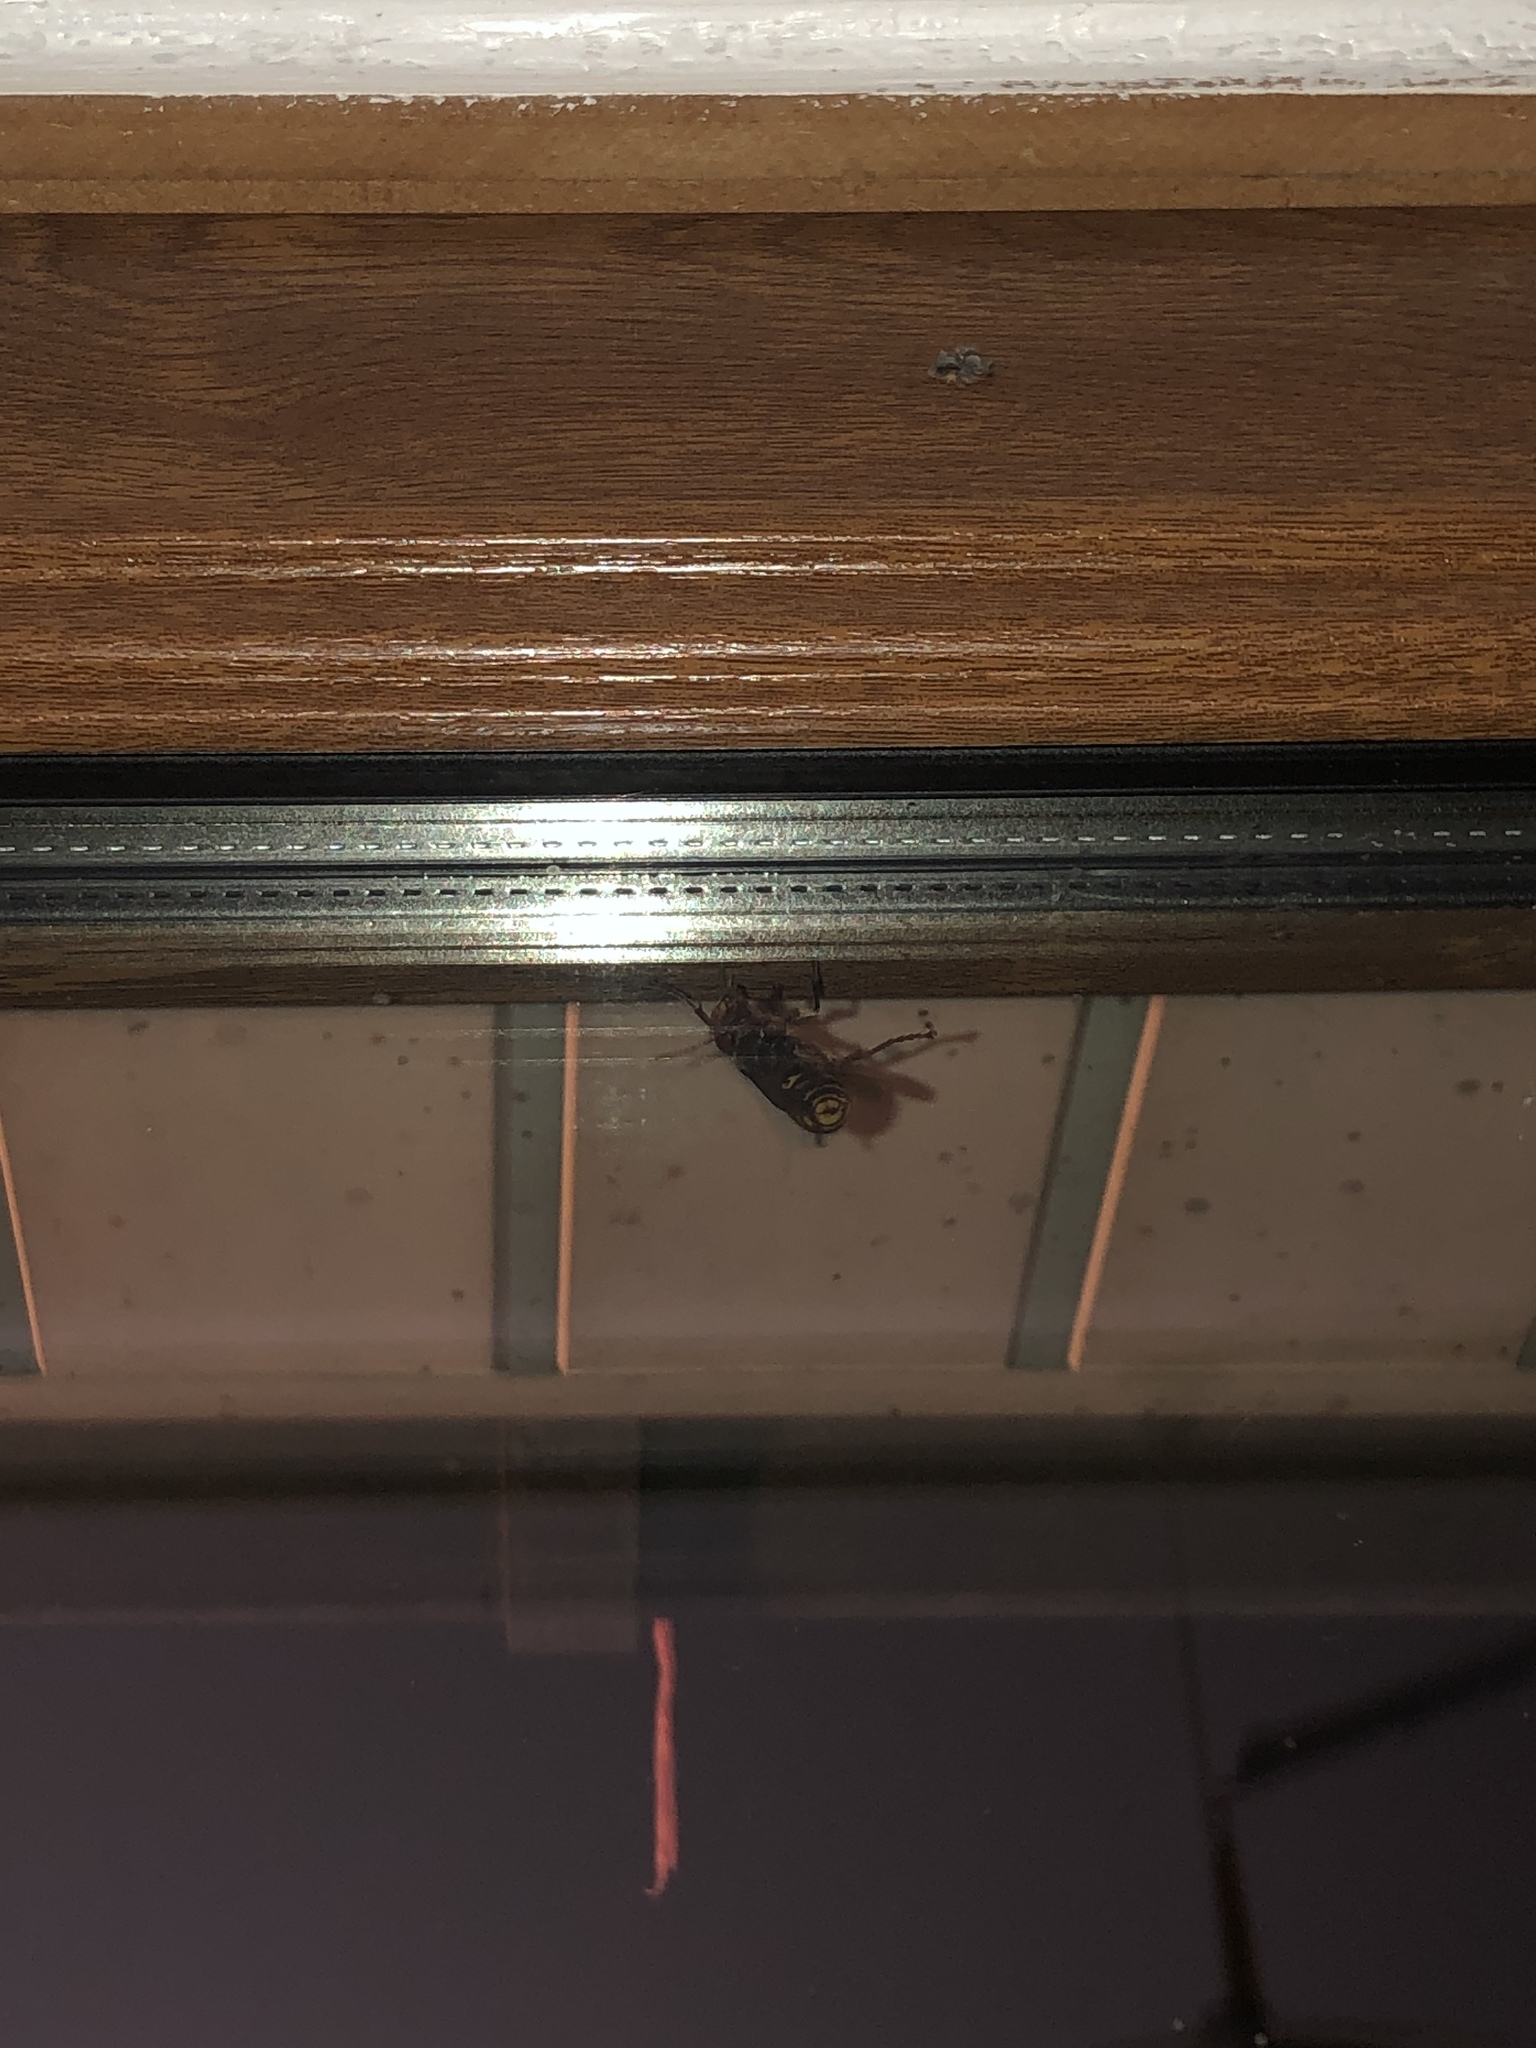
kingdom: Animalia
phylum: Arthropoda
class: Insecta
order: Hymenoptera
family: Vespidae
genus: Vespa
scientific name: Vespa crabro
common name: Hornet
